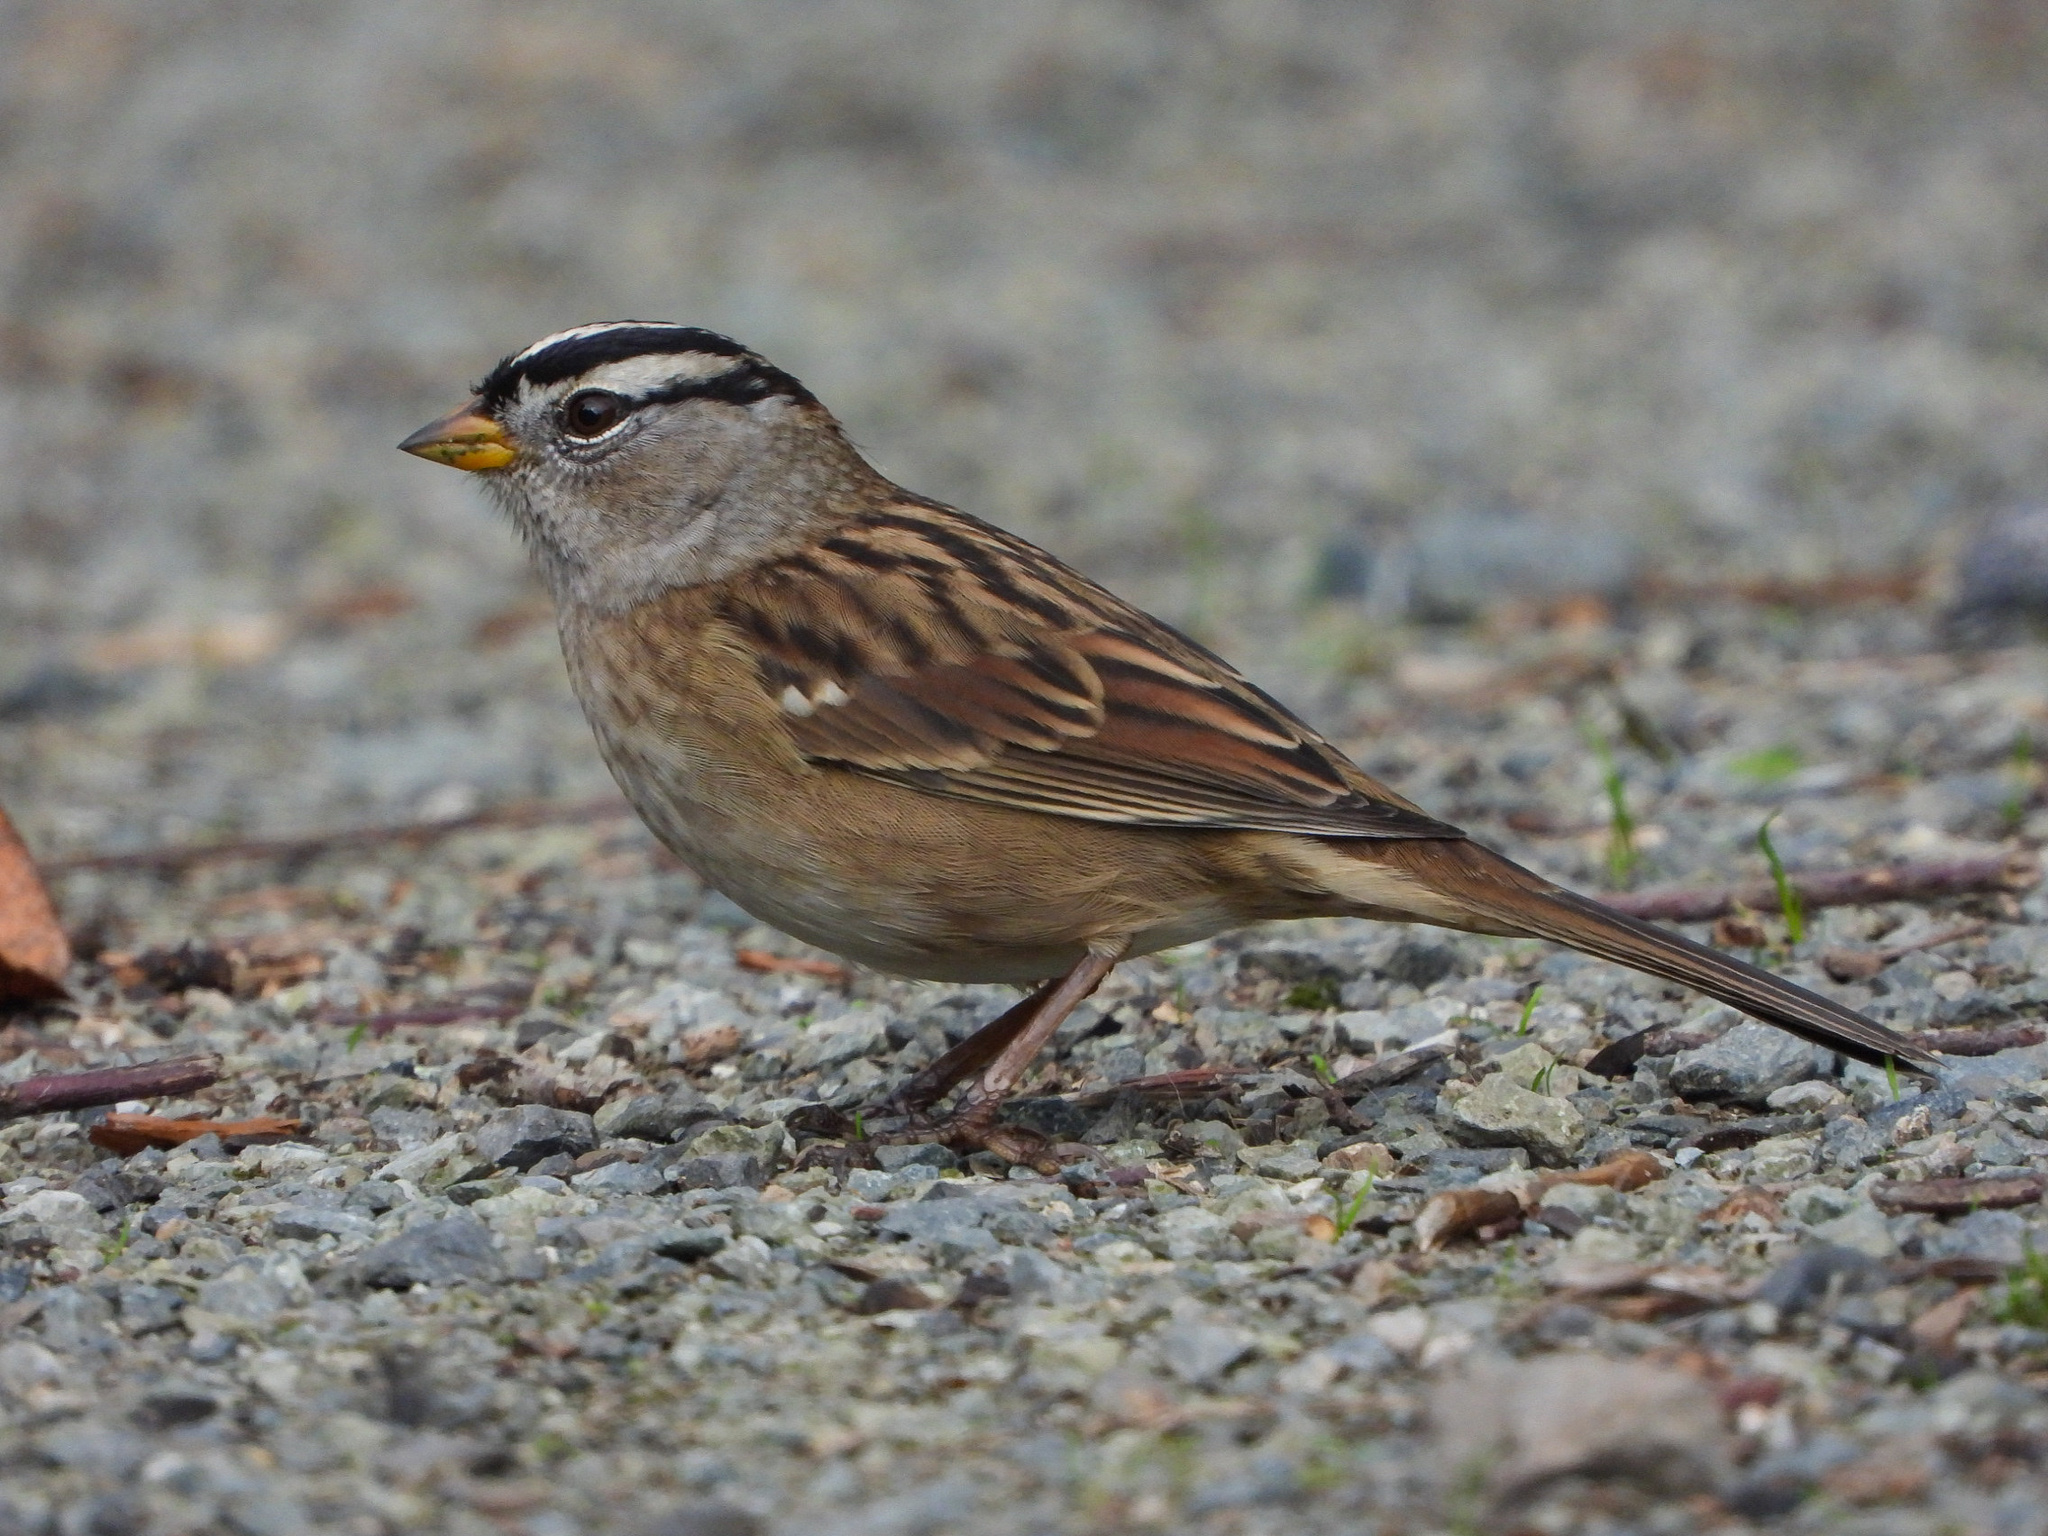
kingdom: Animalia
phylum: Chordata
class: Aves
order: Passeriformes
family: Passerellidae
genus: Zonotrichia
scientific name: Zonotrichia leucophrys
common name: White-crowned sparrow
